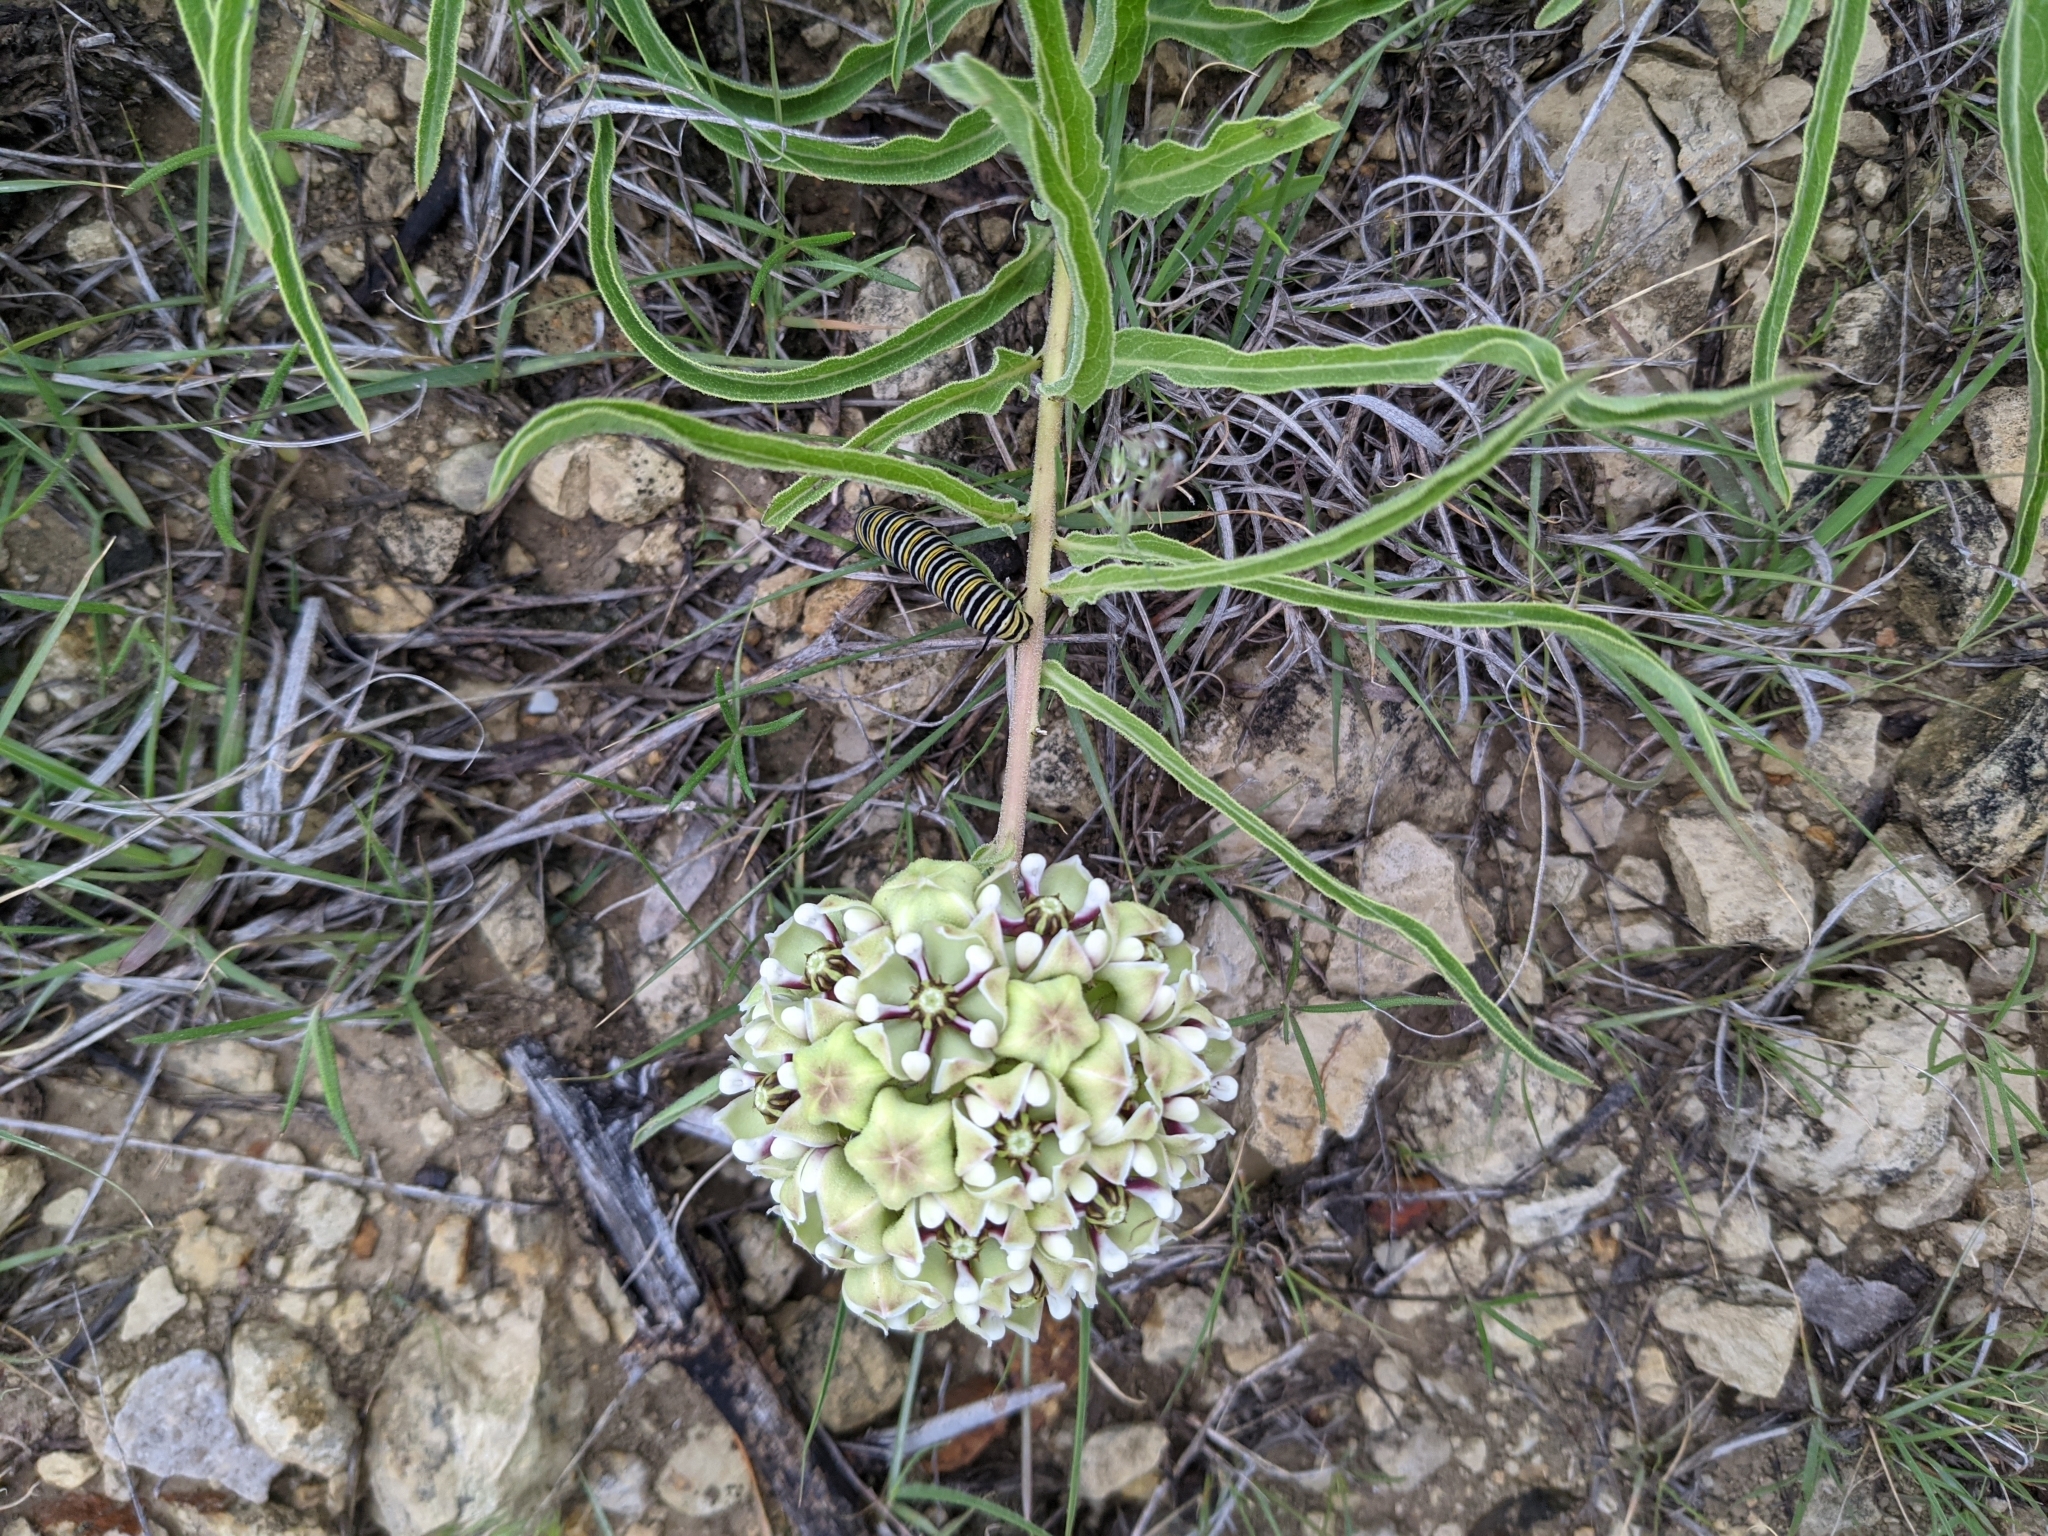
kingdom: Animalia
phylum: Arthropoda
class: Insecta
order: Lepidoptera
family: Nymphalidae
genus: Danaus
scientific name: Danaus plexippus
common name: Monarch
